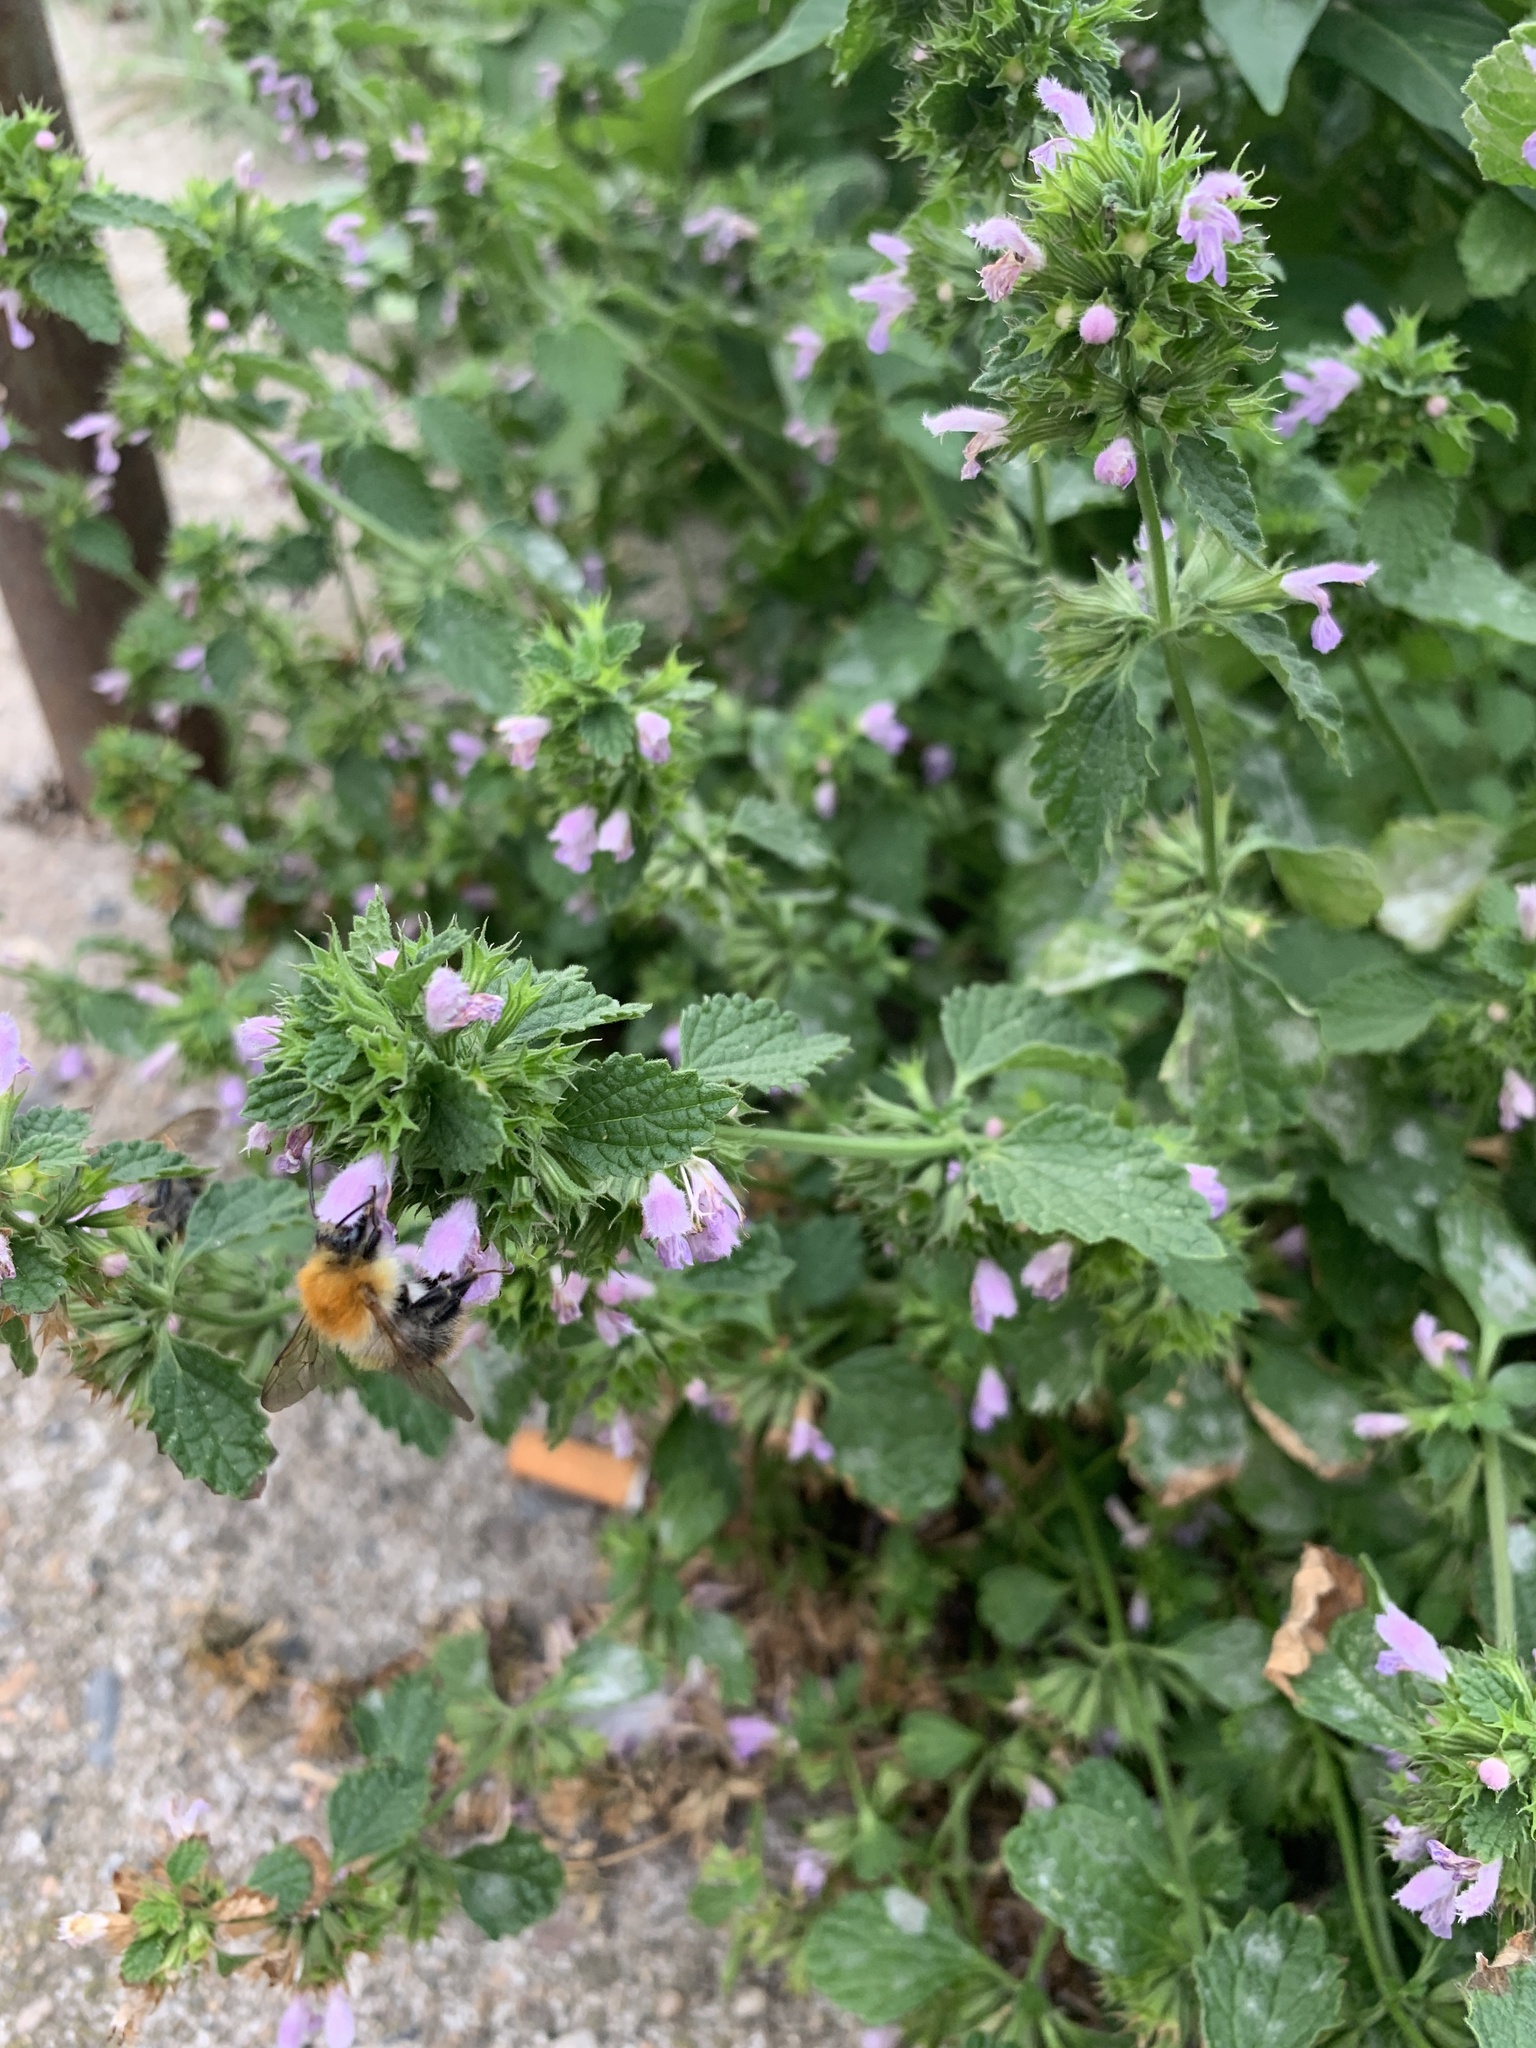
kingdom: Plantae
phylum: Tracheophyta
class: Magnoliopsida
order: Lamiales
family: Lamiaceae
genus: Ballota
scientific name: Ballota nigra
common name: Black horehound
